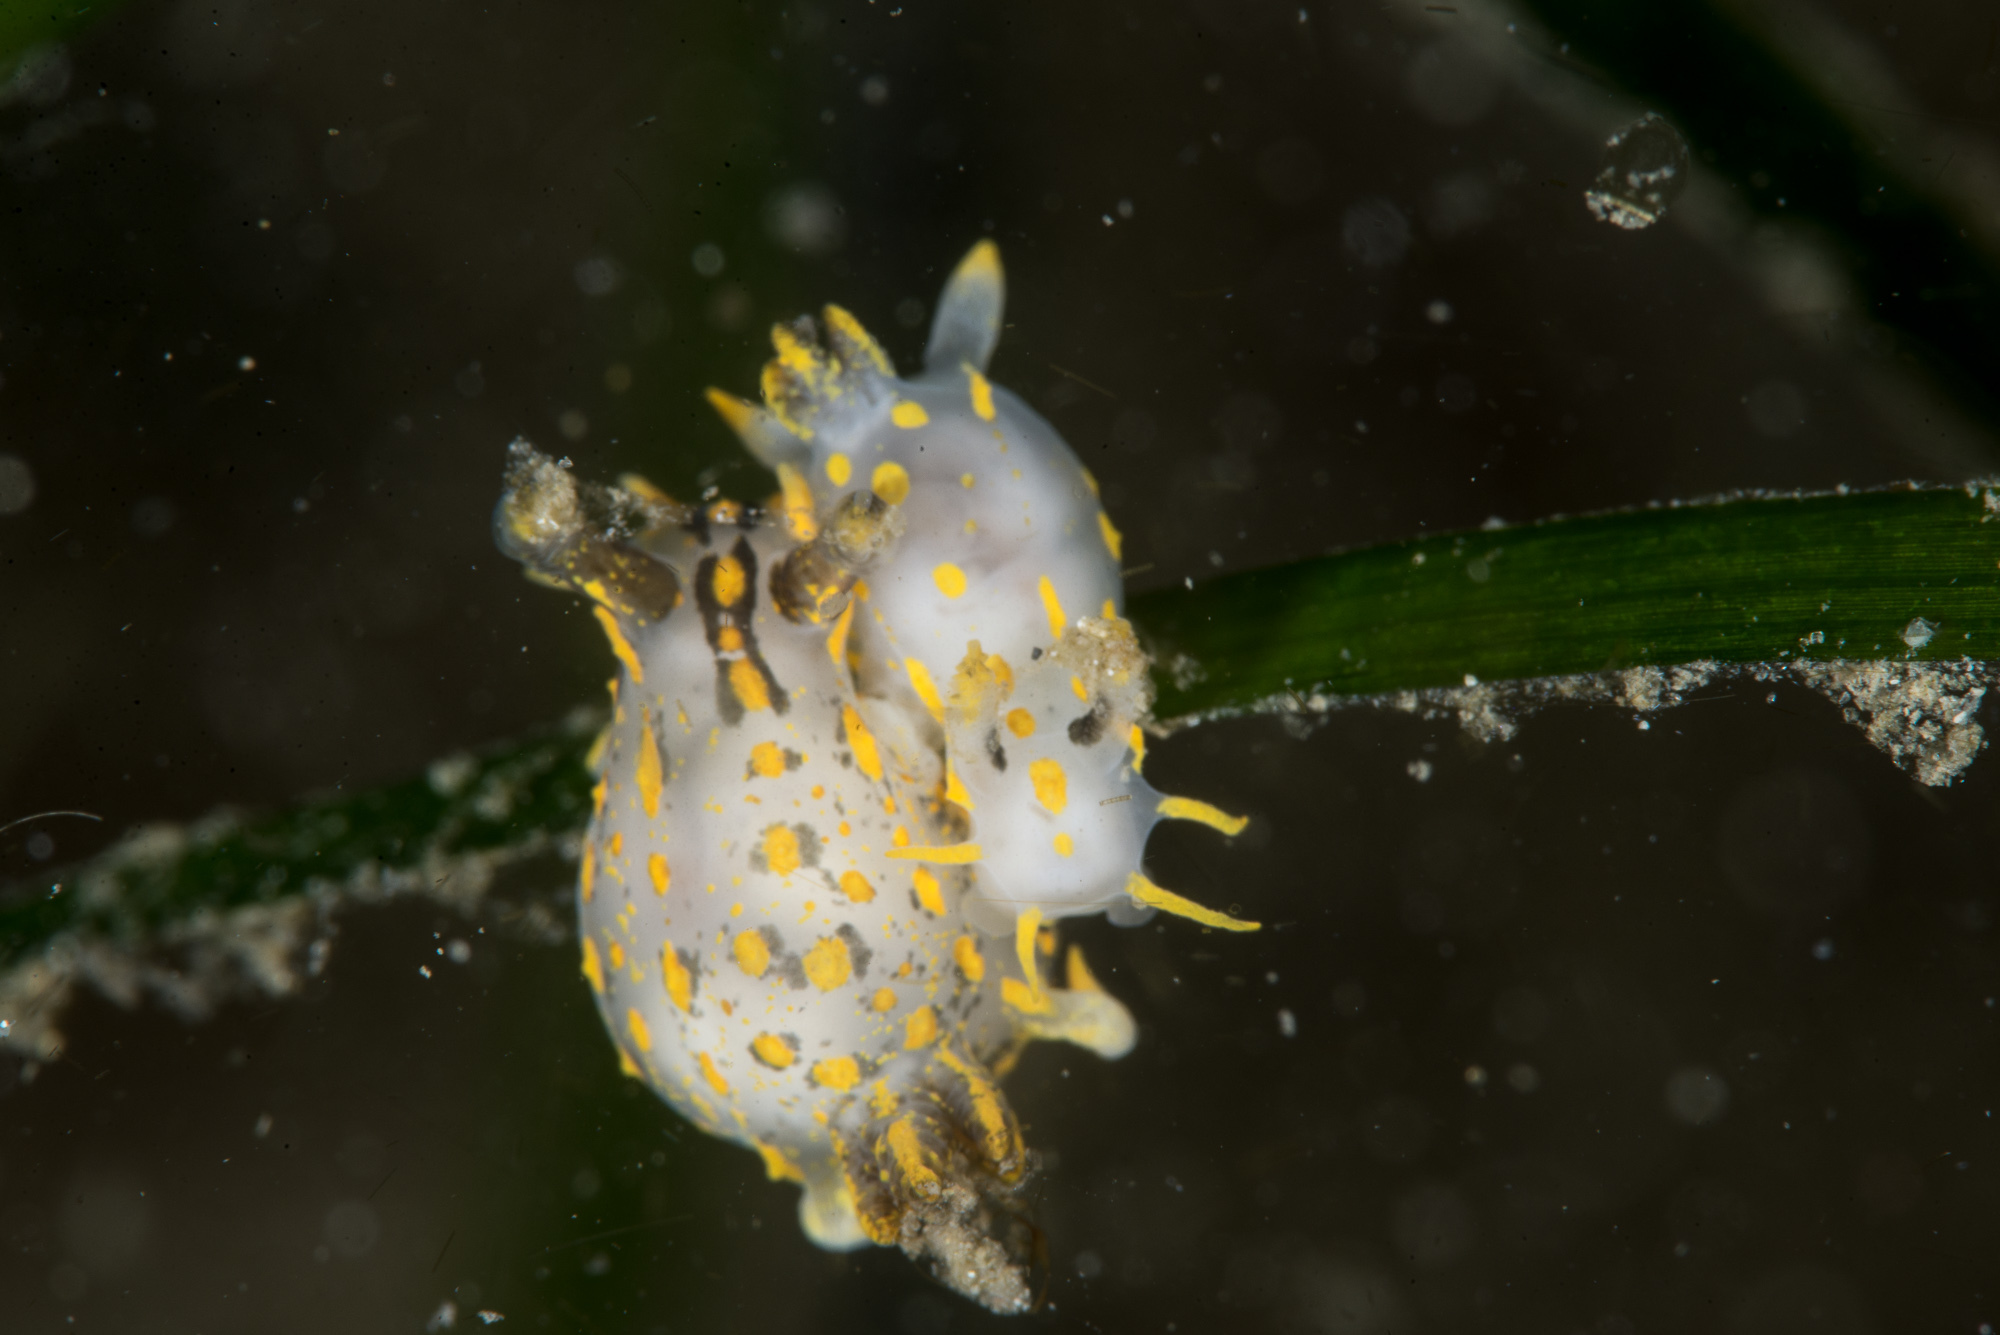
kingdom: Animalia
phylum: Mollusca
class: Gastropoda
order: Nudibranchia
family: Polyceridae
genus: Polycera
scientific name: Polycera quadrilineata
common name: Four-striped polycera
